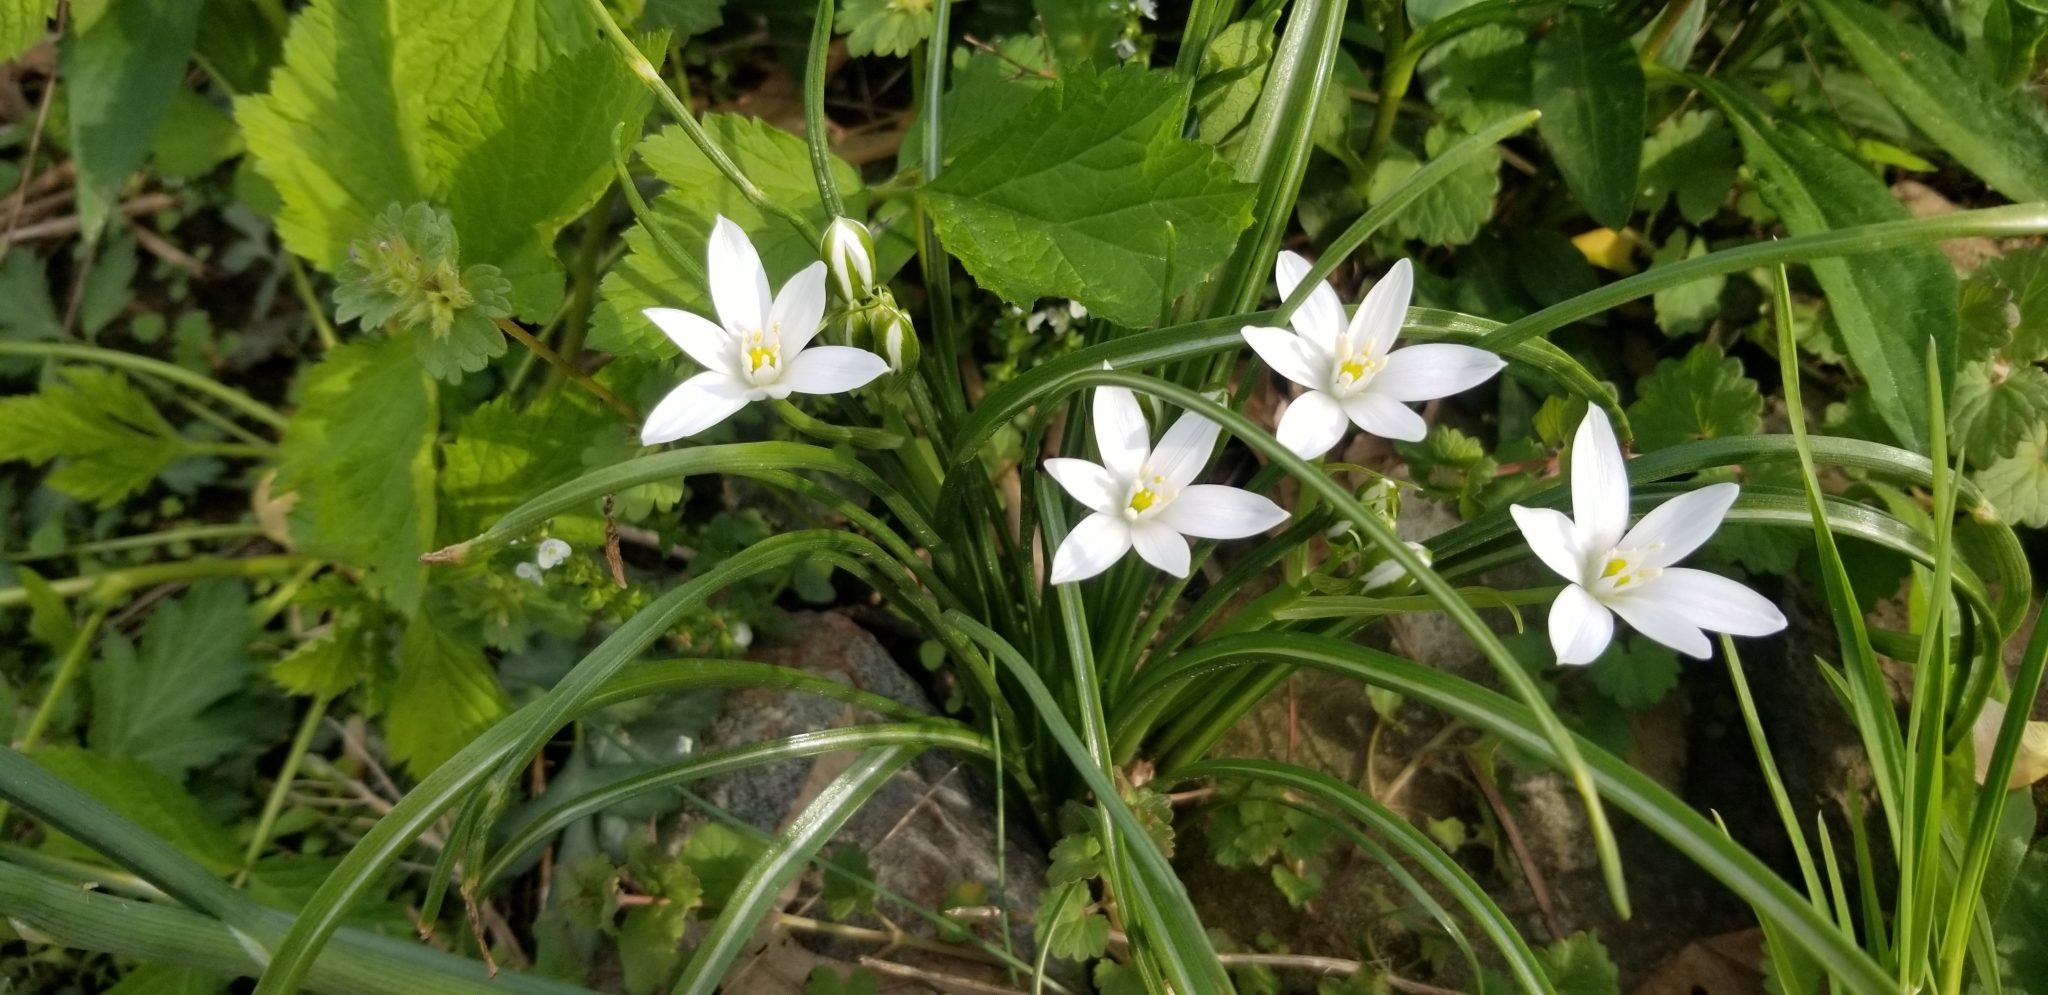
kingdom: Plantae
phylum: Tracheophyta
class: Liliopsida
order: Asparagales
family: Asparagaceae
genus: Ornithogalum
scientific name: Ornithogalum umbellatum
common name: Garden star-of-bethlehem
